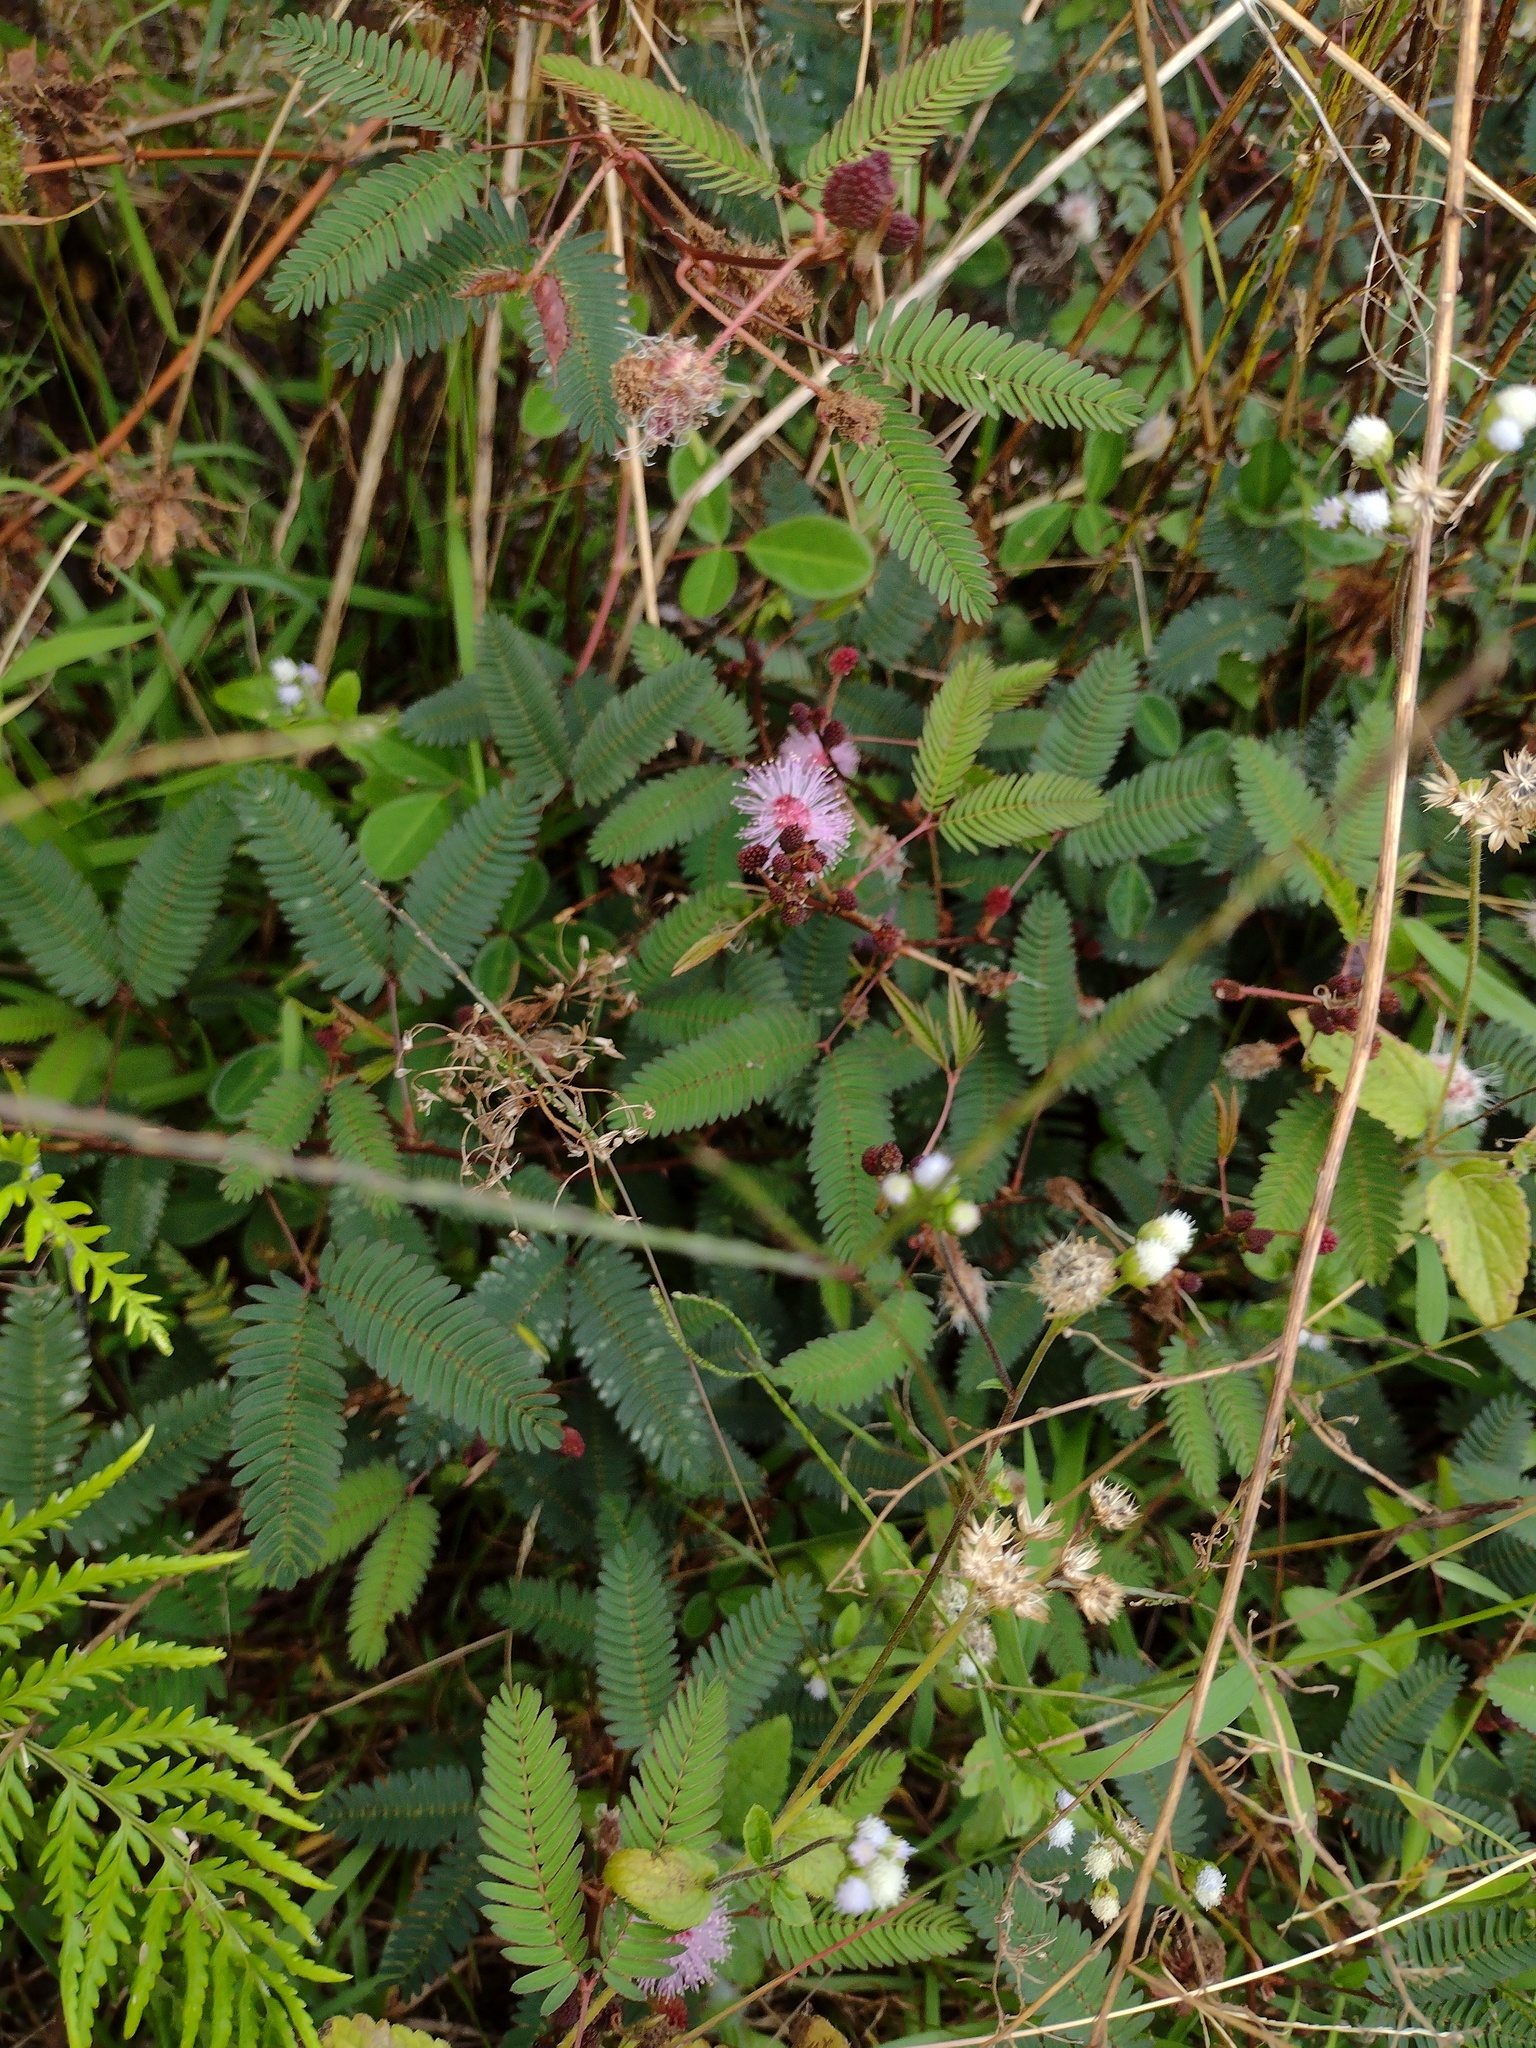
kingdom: Plantae
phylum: Tracheophyta
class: Magnoliopsida
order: Fabales
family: Fabaceae
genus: Mimosa
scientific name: Mimosa pudica
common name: Sensitive plant
